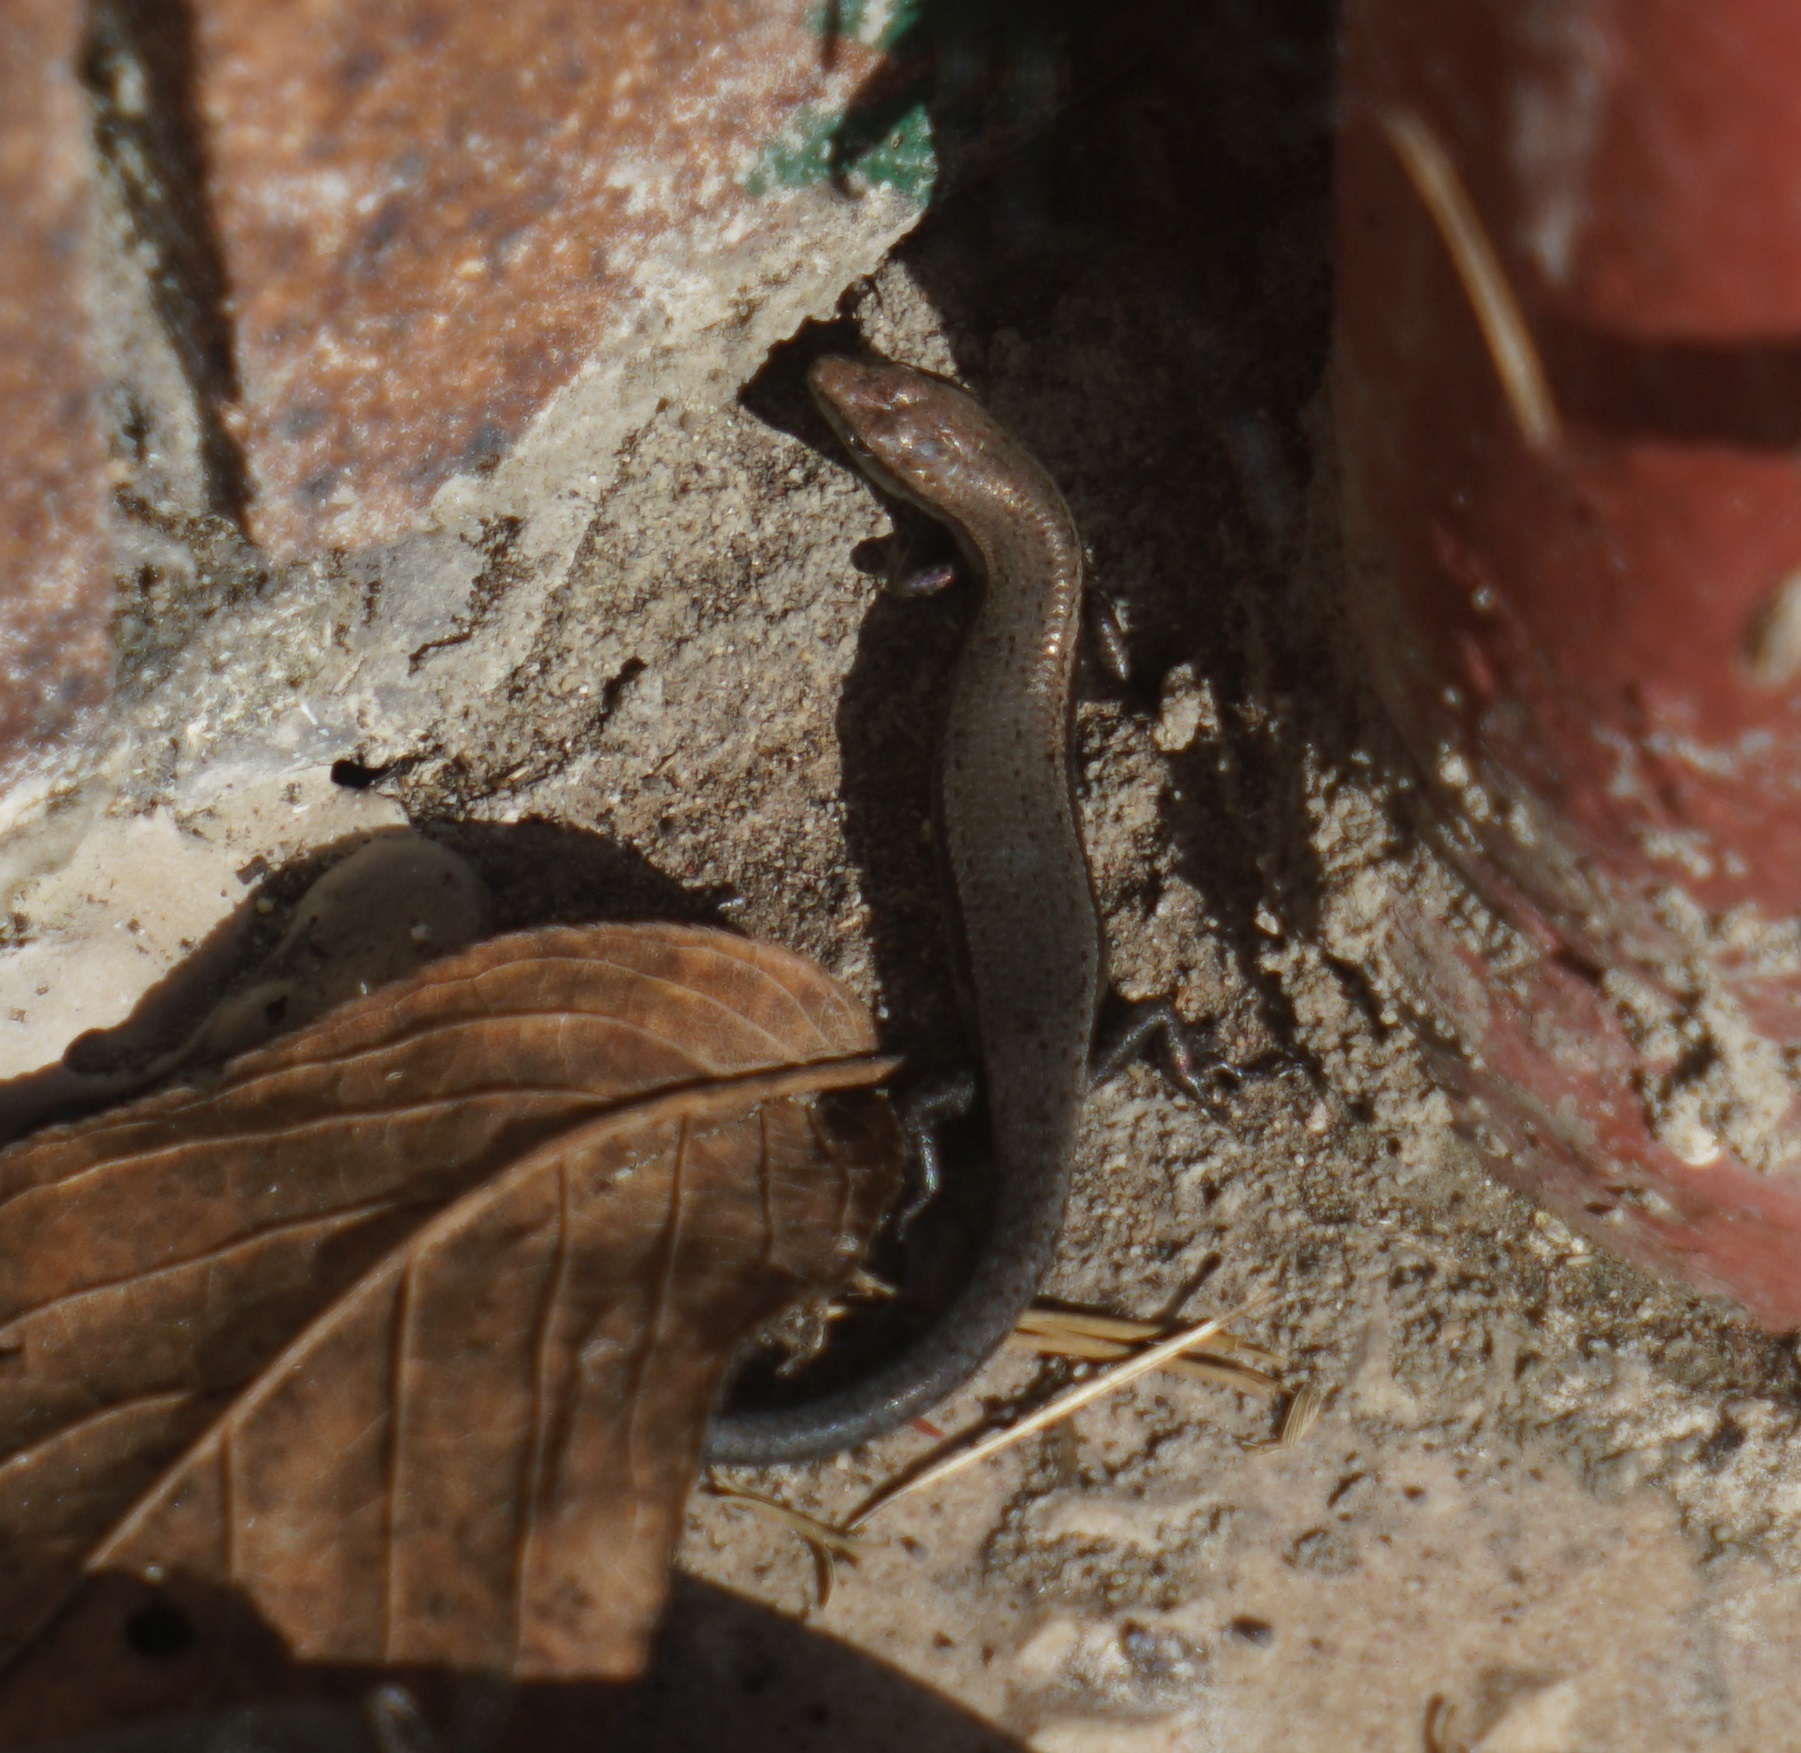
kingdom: Animalia
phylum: Chordata
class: Squamata
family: Scincidae
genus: Lampropholis
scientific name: Lampropholis delicata
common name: Plague skink
